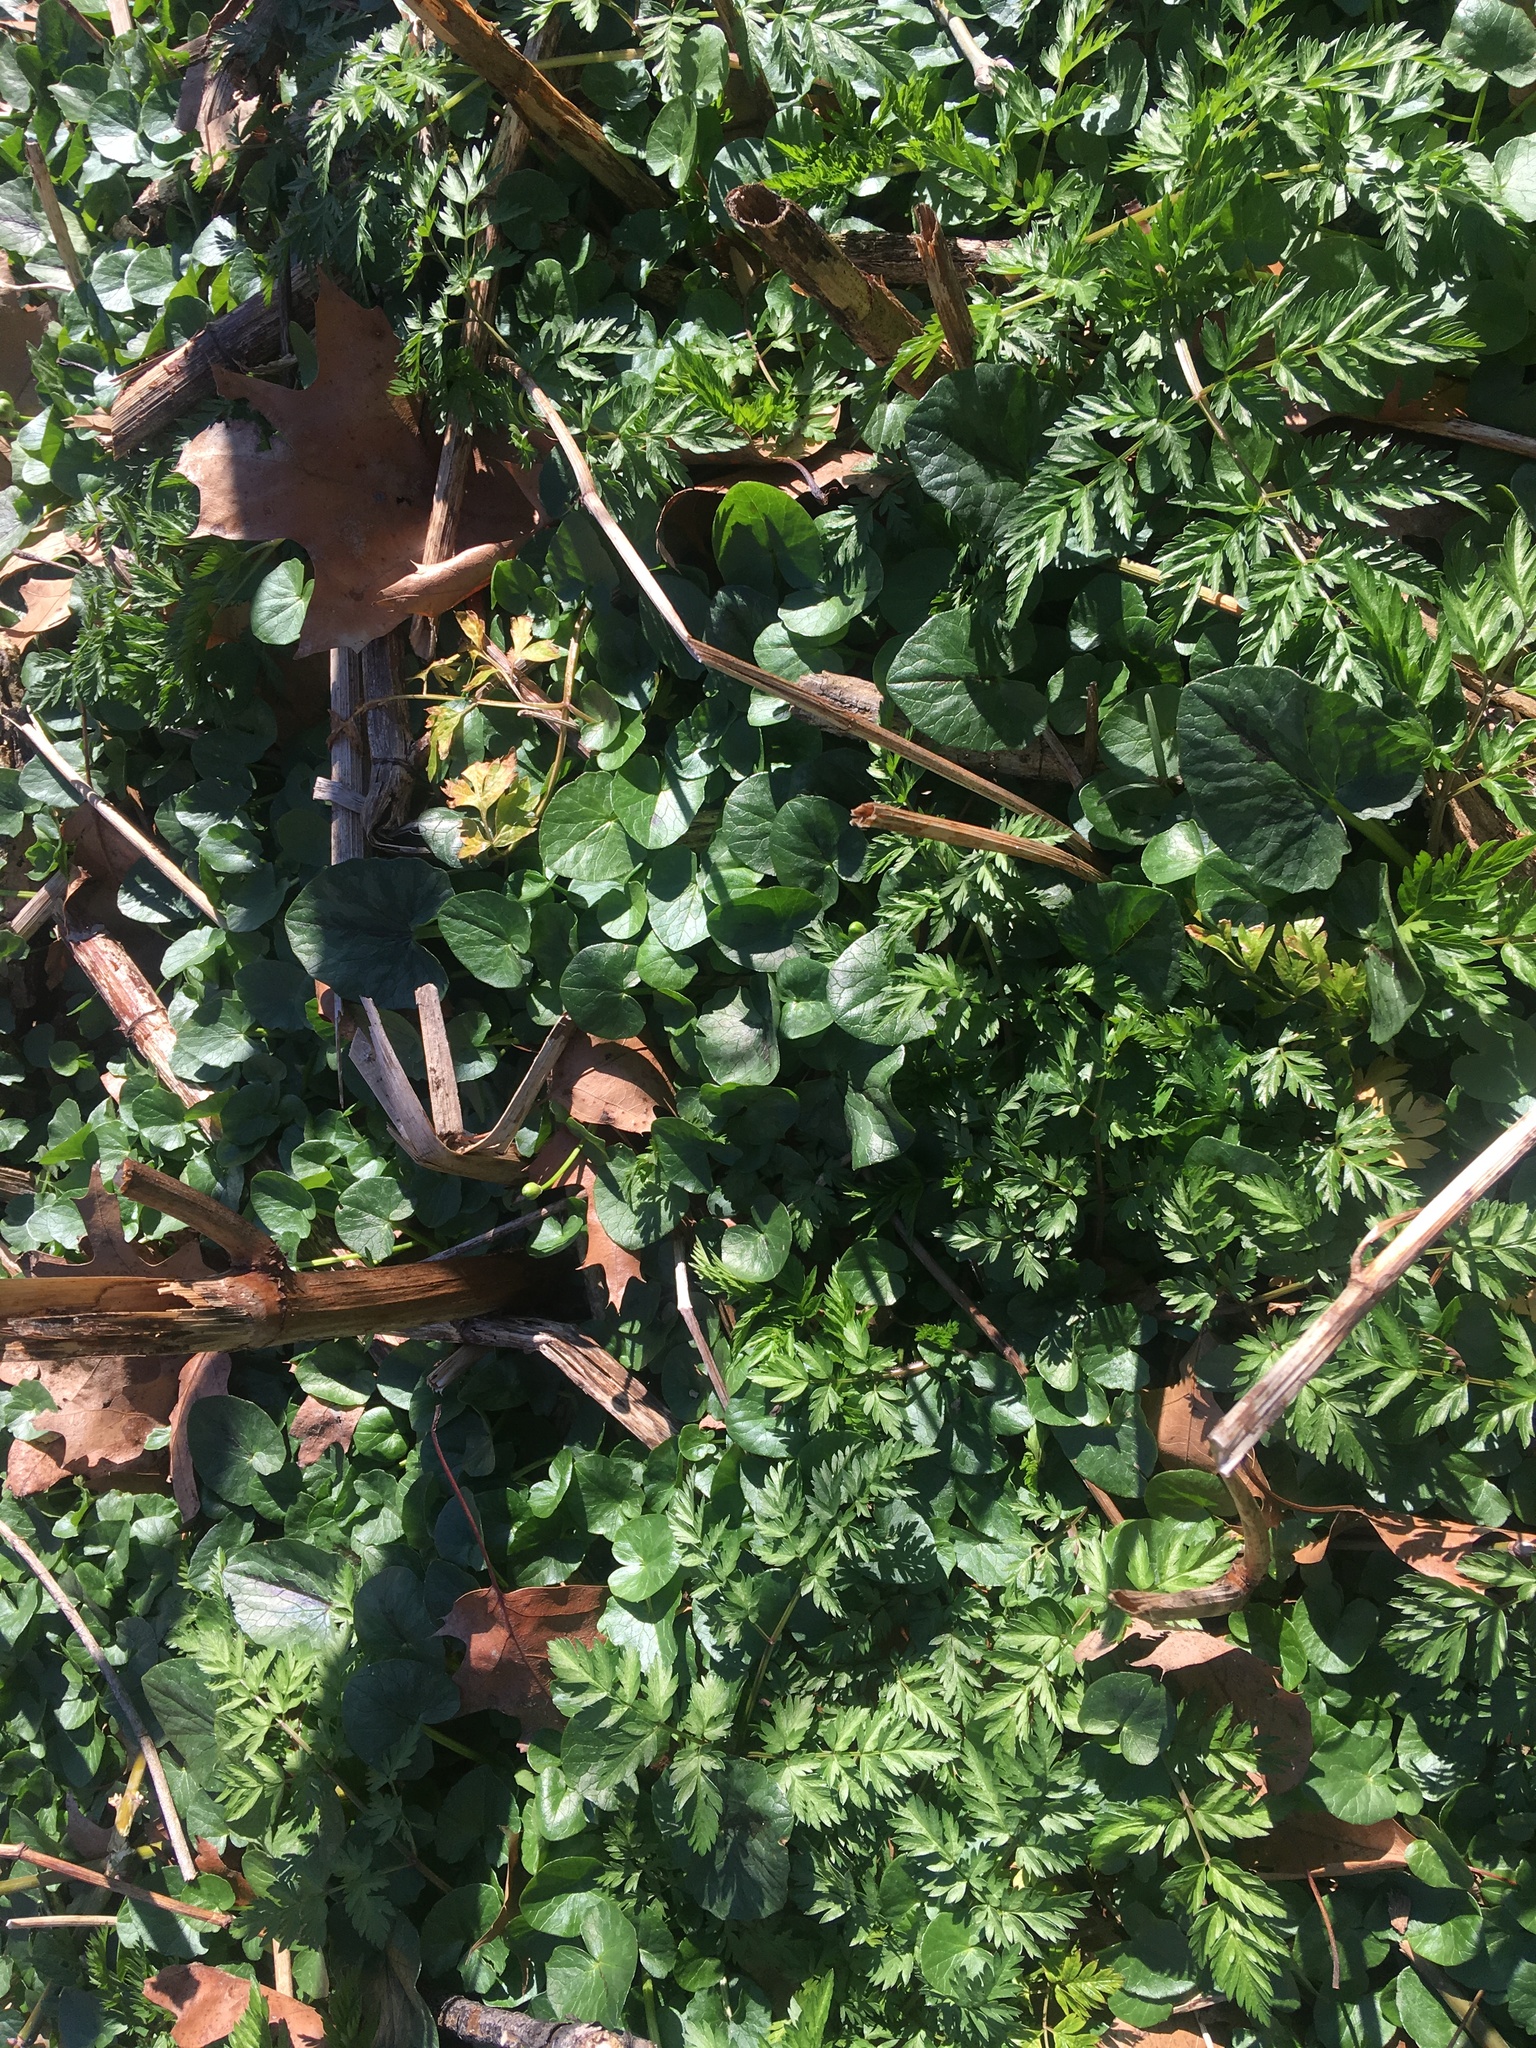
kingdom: Plantae
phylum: Tracheophyta
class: Magnoliopsida
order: Ranunculales
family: Ranunculaceae
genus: Ficaria
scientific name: Ficaria verna
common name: Lesser celandine
